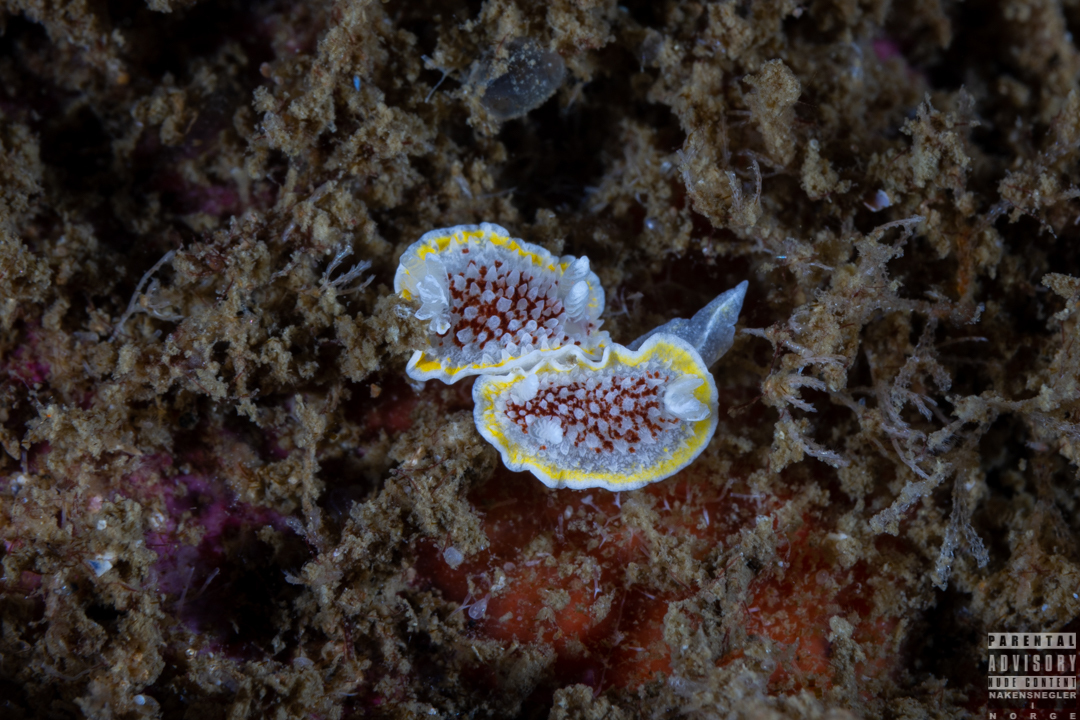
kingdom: Animalia
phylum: Mollusca
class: Gastropoda
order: Nudibranchia
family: Calycidorididae
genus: Diaphorodoris
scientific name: Diaphorodoris luteocincta
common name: Fried egg nudibranch
